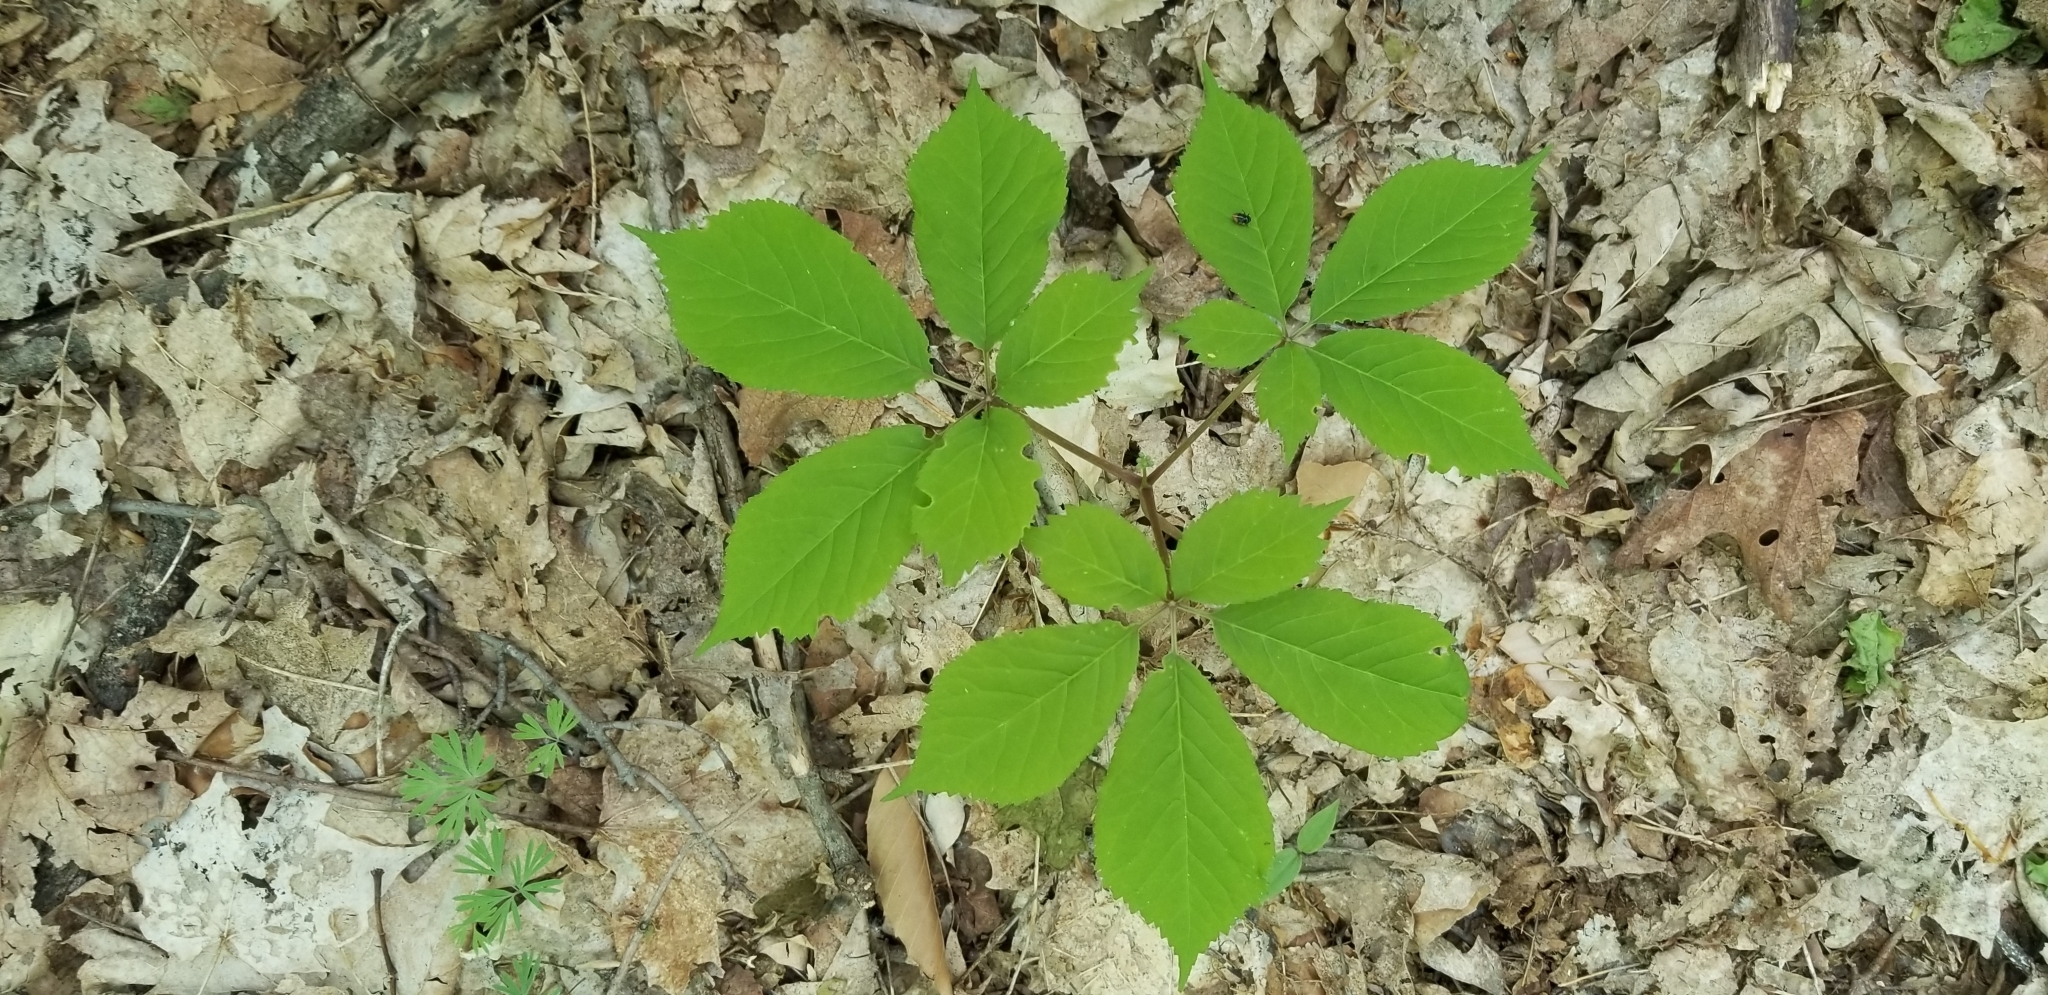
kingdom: Plantae
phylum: Tracheophyta
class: Magnoliopsida
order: Apiales
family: Araliaceae
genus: Panax
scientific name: Panax quinquefolius
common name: American ginseng
